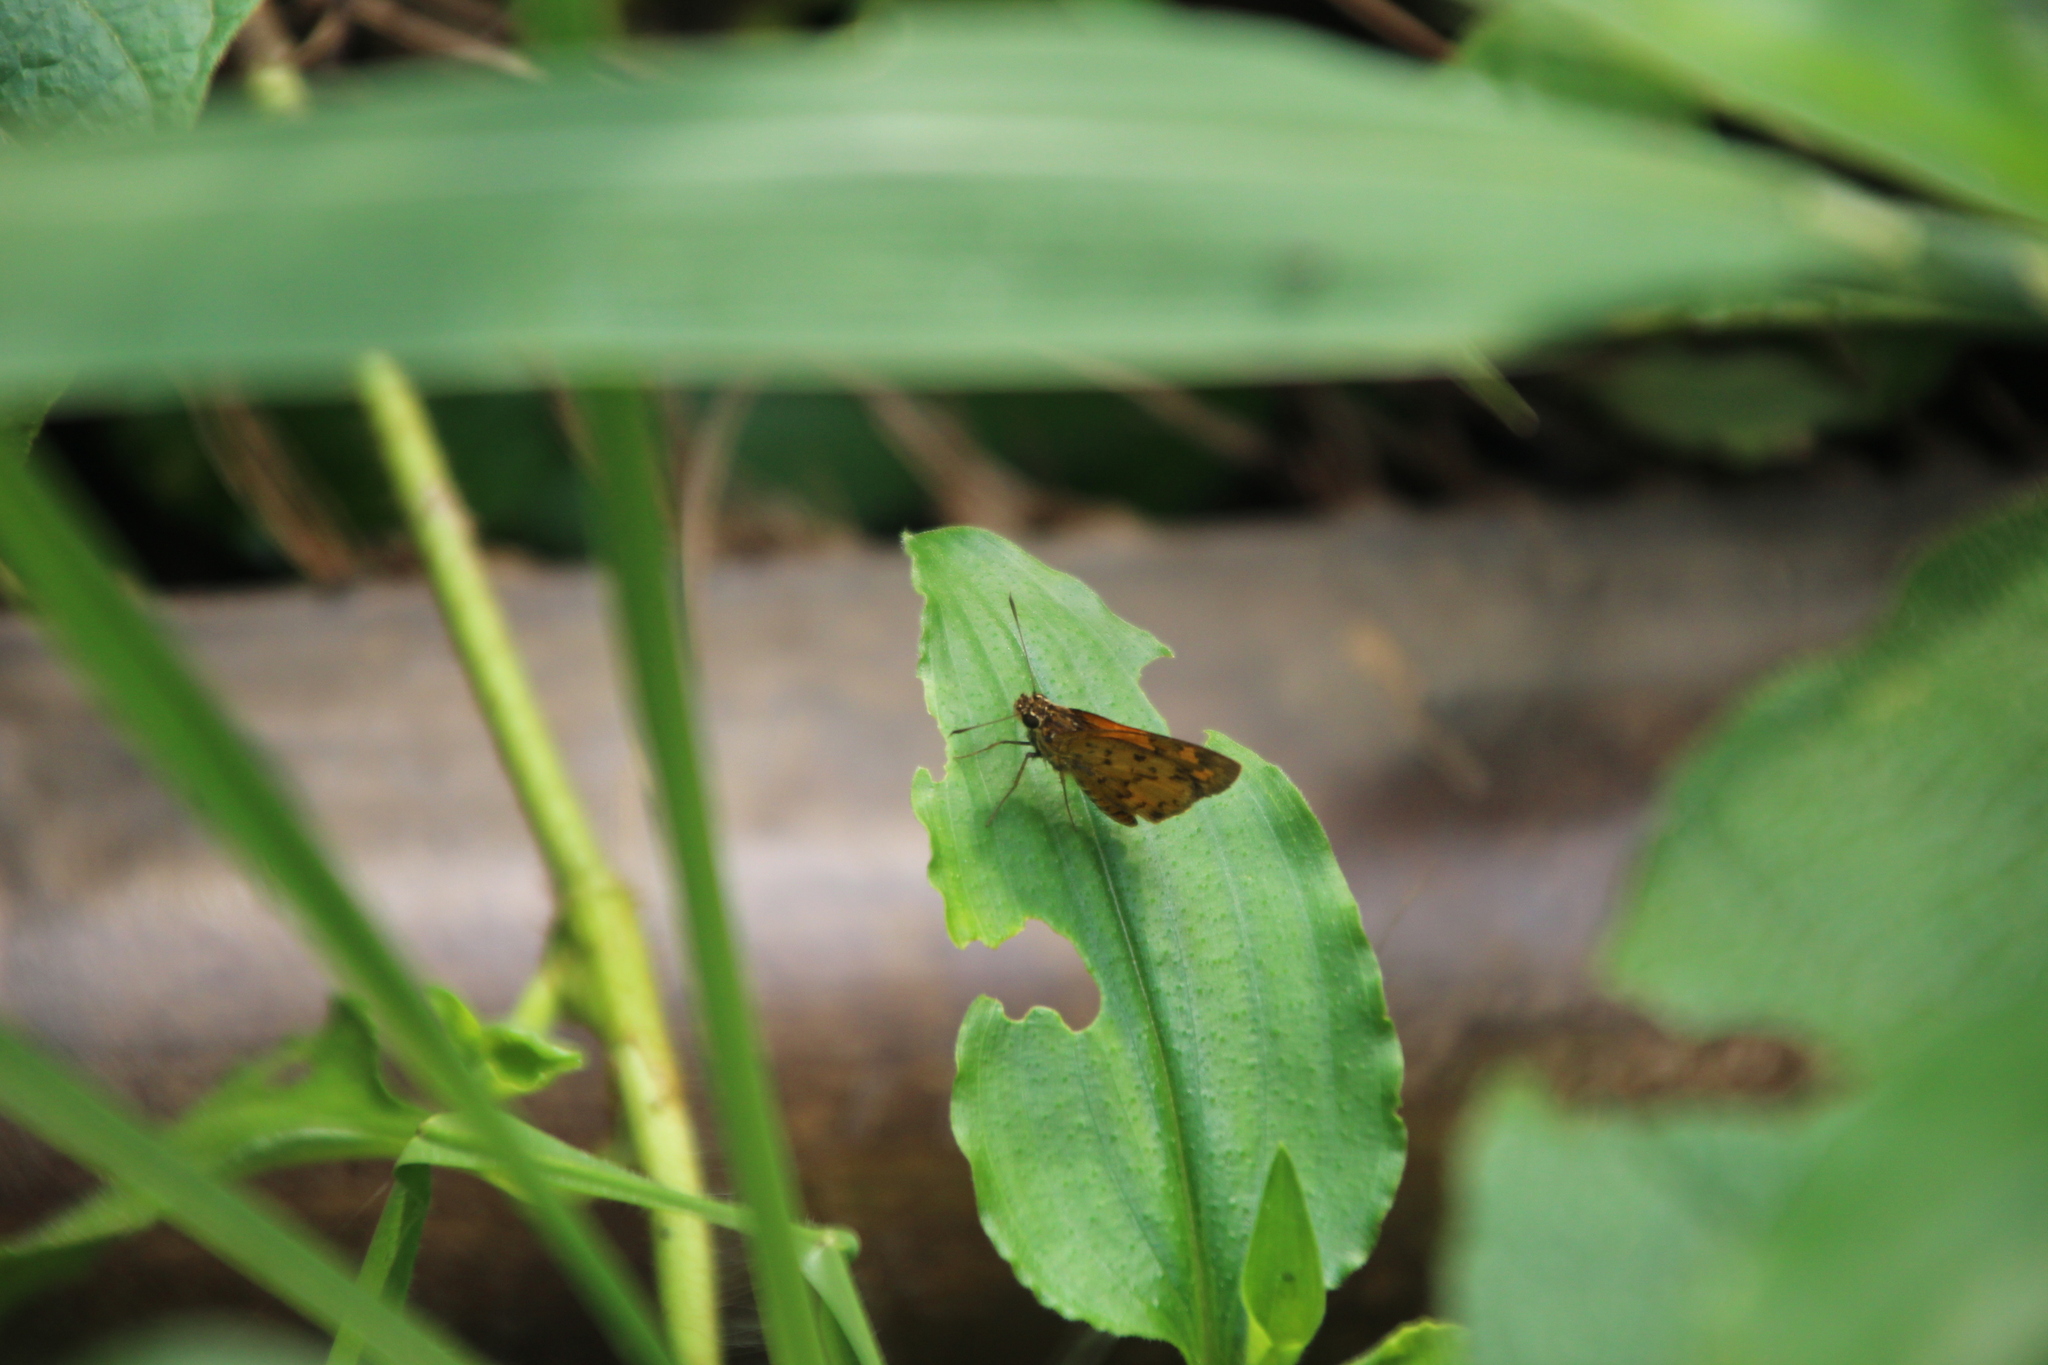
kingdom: Animalia
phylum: Arthropoda
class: Insecta
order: Lepidoptera
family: Hesperiidae
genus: Pardaleodes
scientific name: Pardaleodes incerta
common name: Savanna pathfinder
